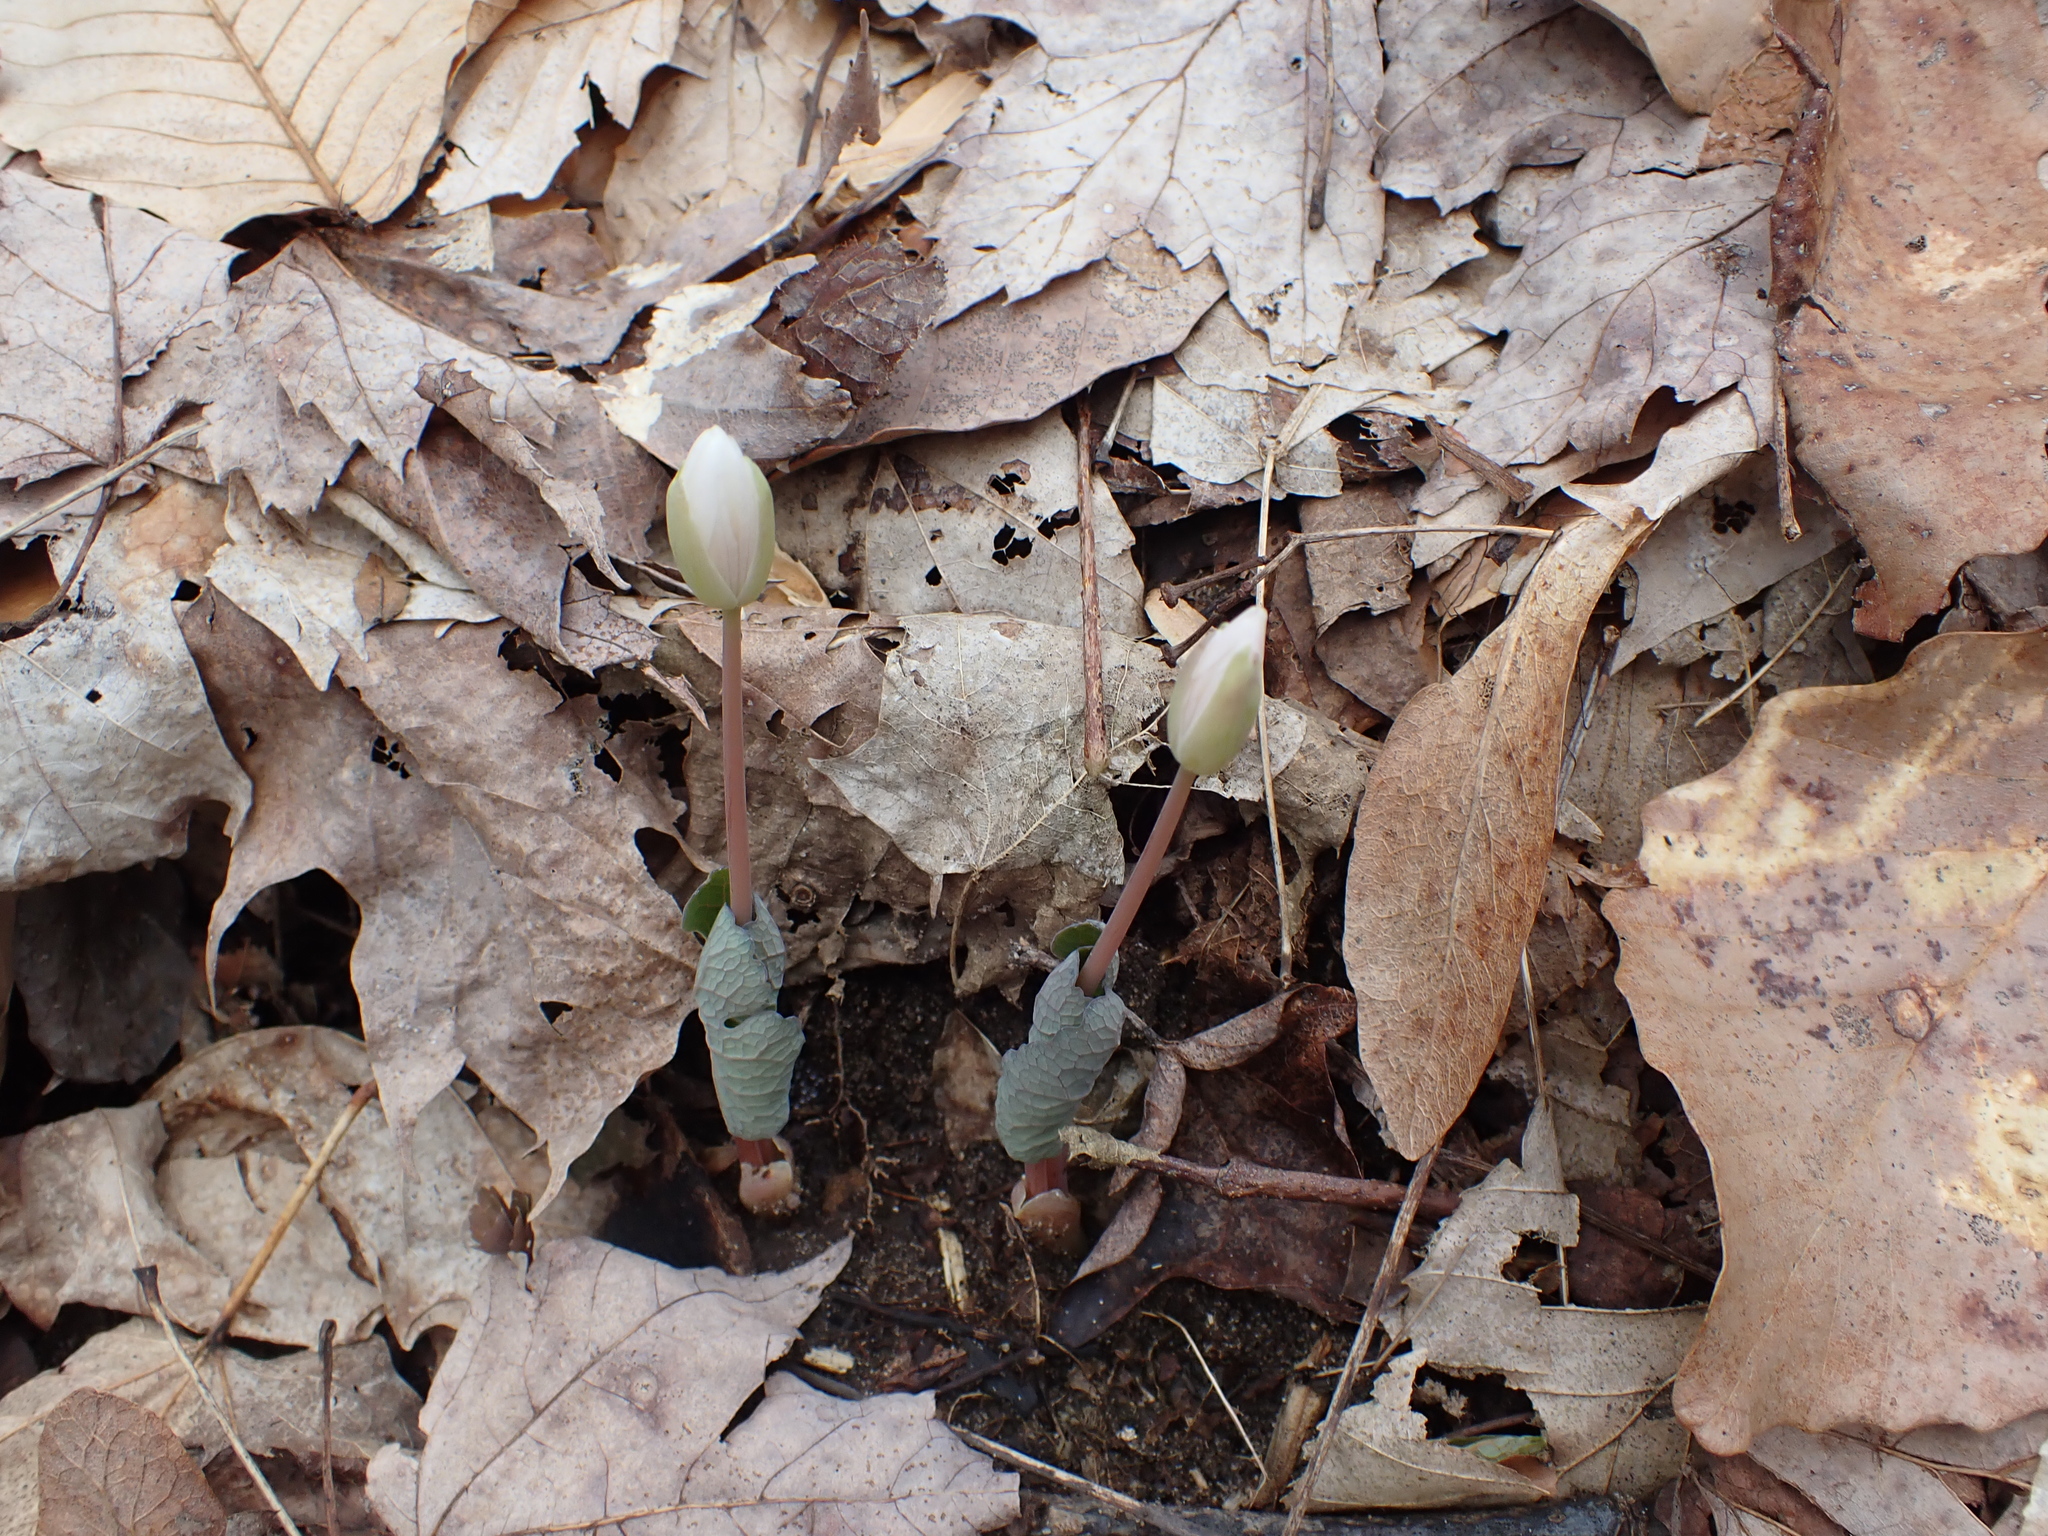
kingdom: Plantae
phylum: Tracheophyta
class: Magnoliopsida
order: Ranunculales
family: Papaveraceae
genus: Sanguinaria
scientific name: Sanguinaria canadensis
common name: Bloodroot
